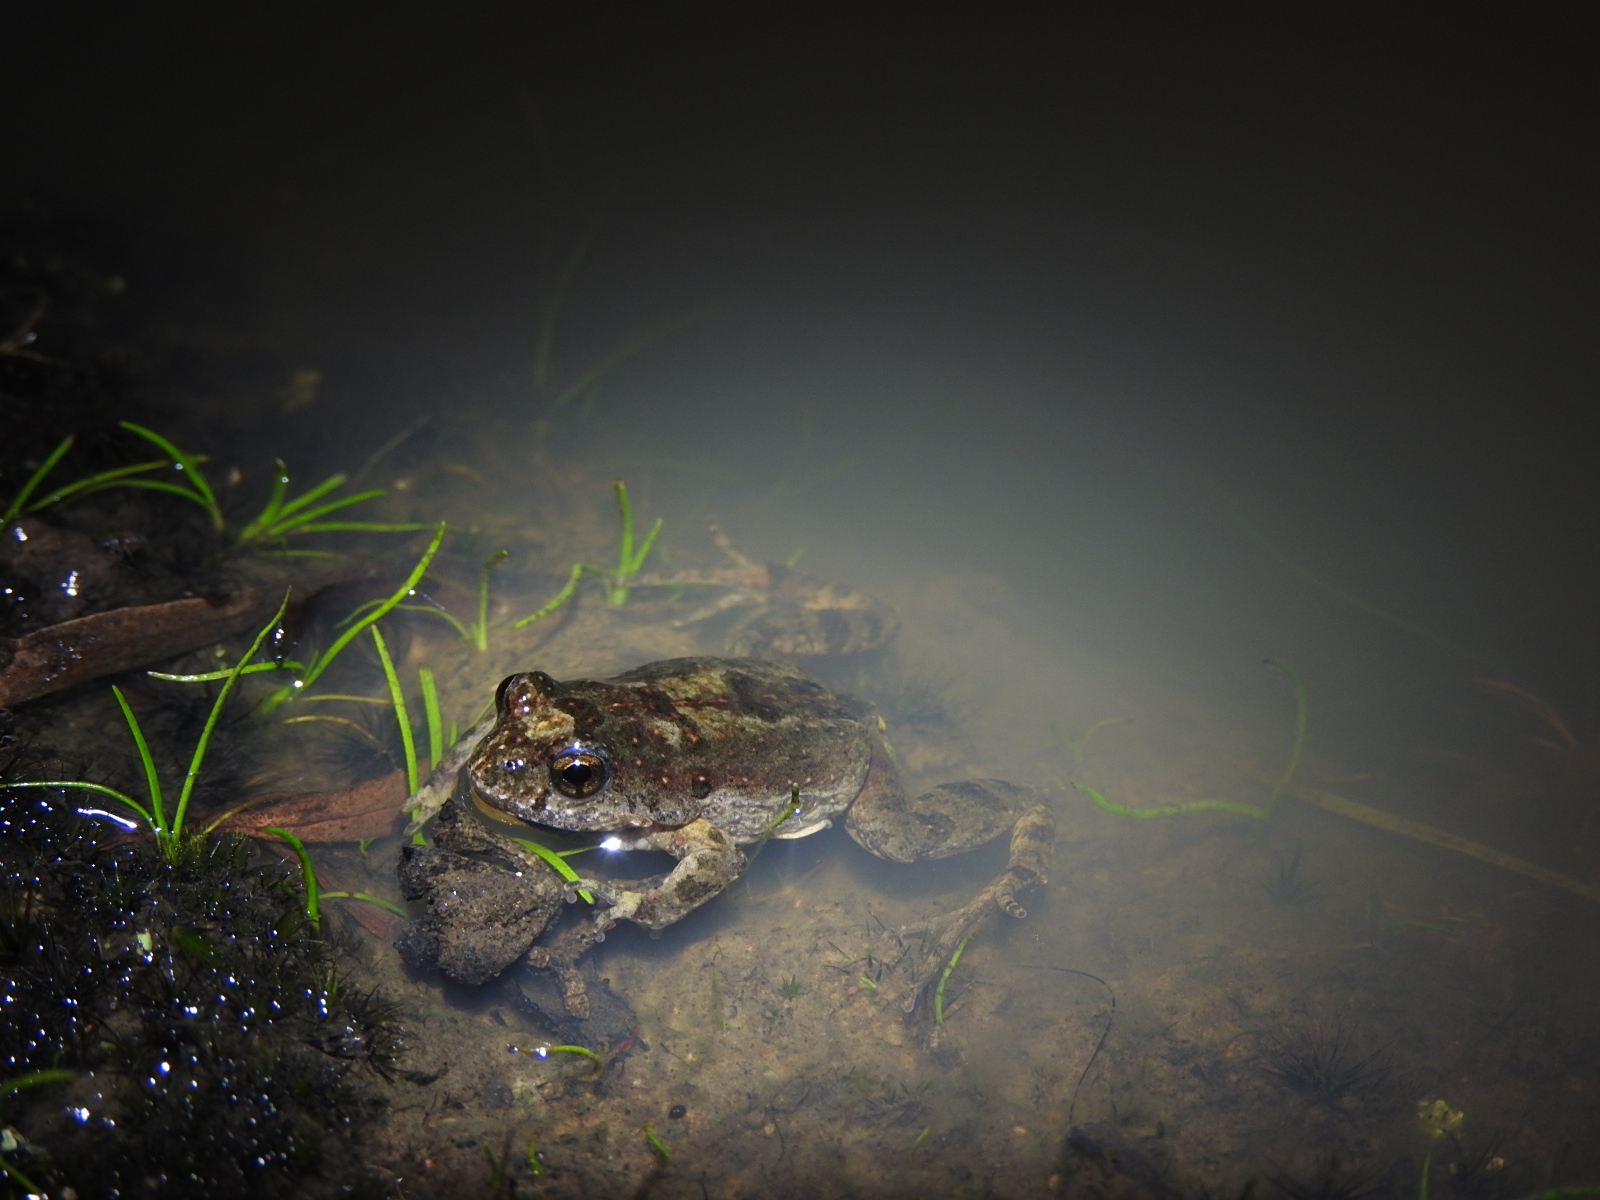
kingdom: Animalia
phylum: Chordata
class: Amphibia
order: Anura
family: Myobatrachidae
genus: Crinia
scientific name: Crinia signifera
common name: Brown froglet
